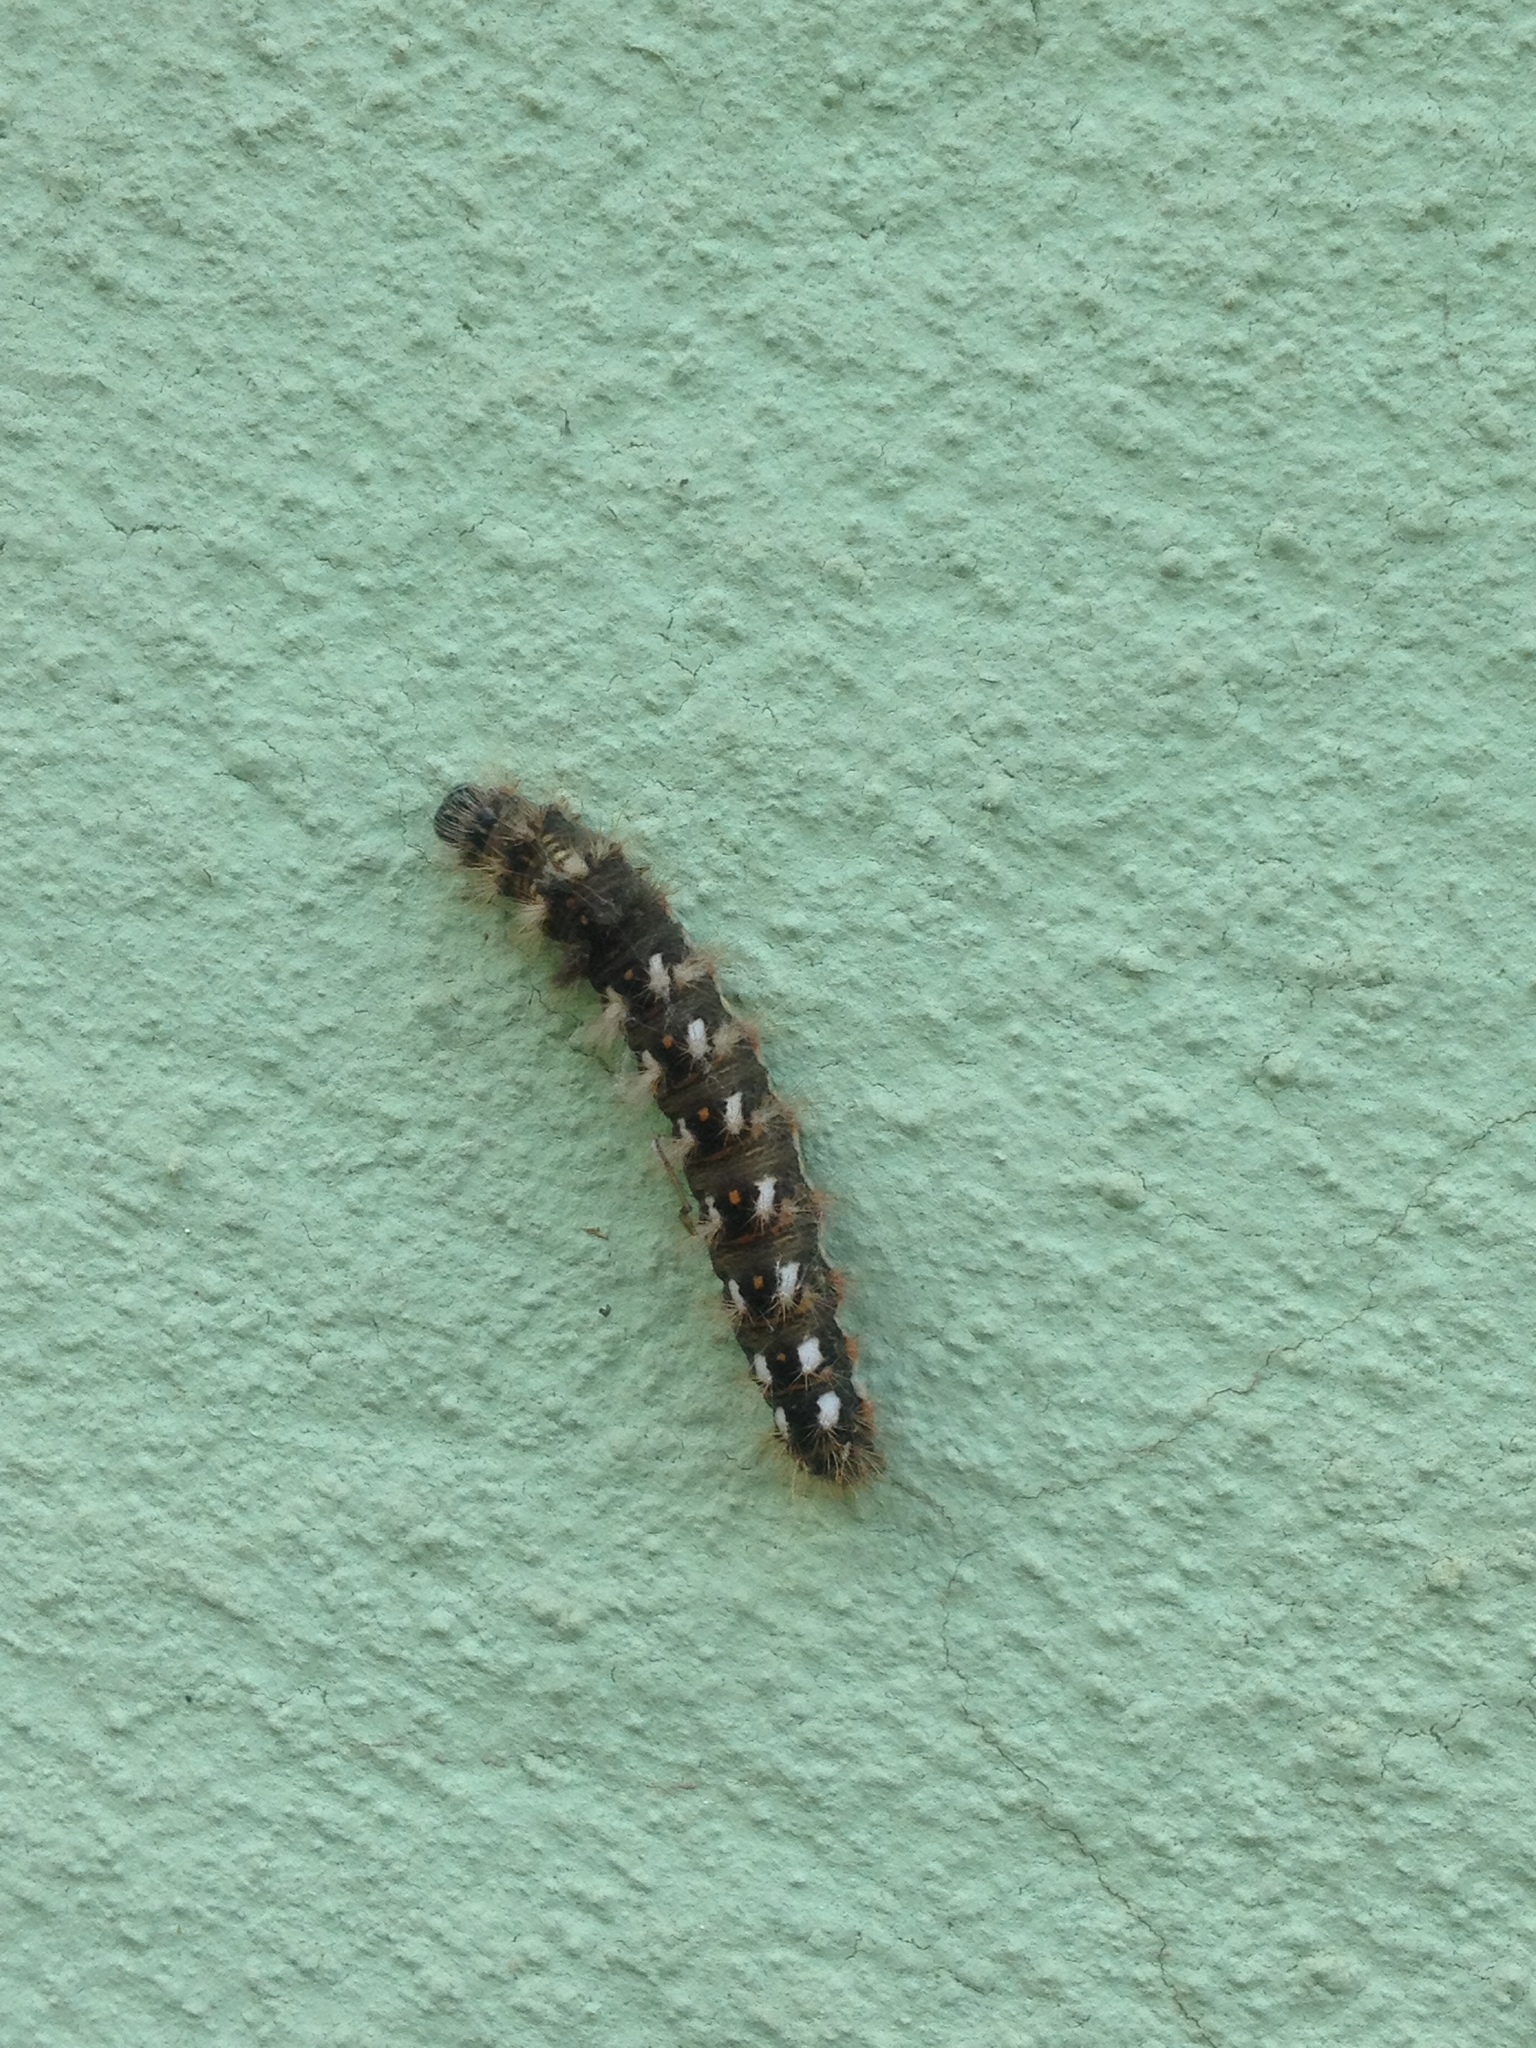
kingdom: Animalia
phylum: Arthropoda
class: Insecta
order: Lepidoptera
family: Noctuidae
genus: Acronicta
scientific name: Acronicta rumicis
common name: Knot grass
